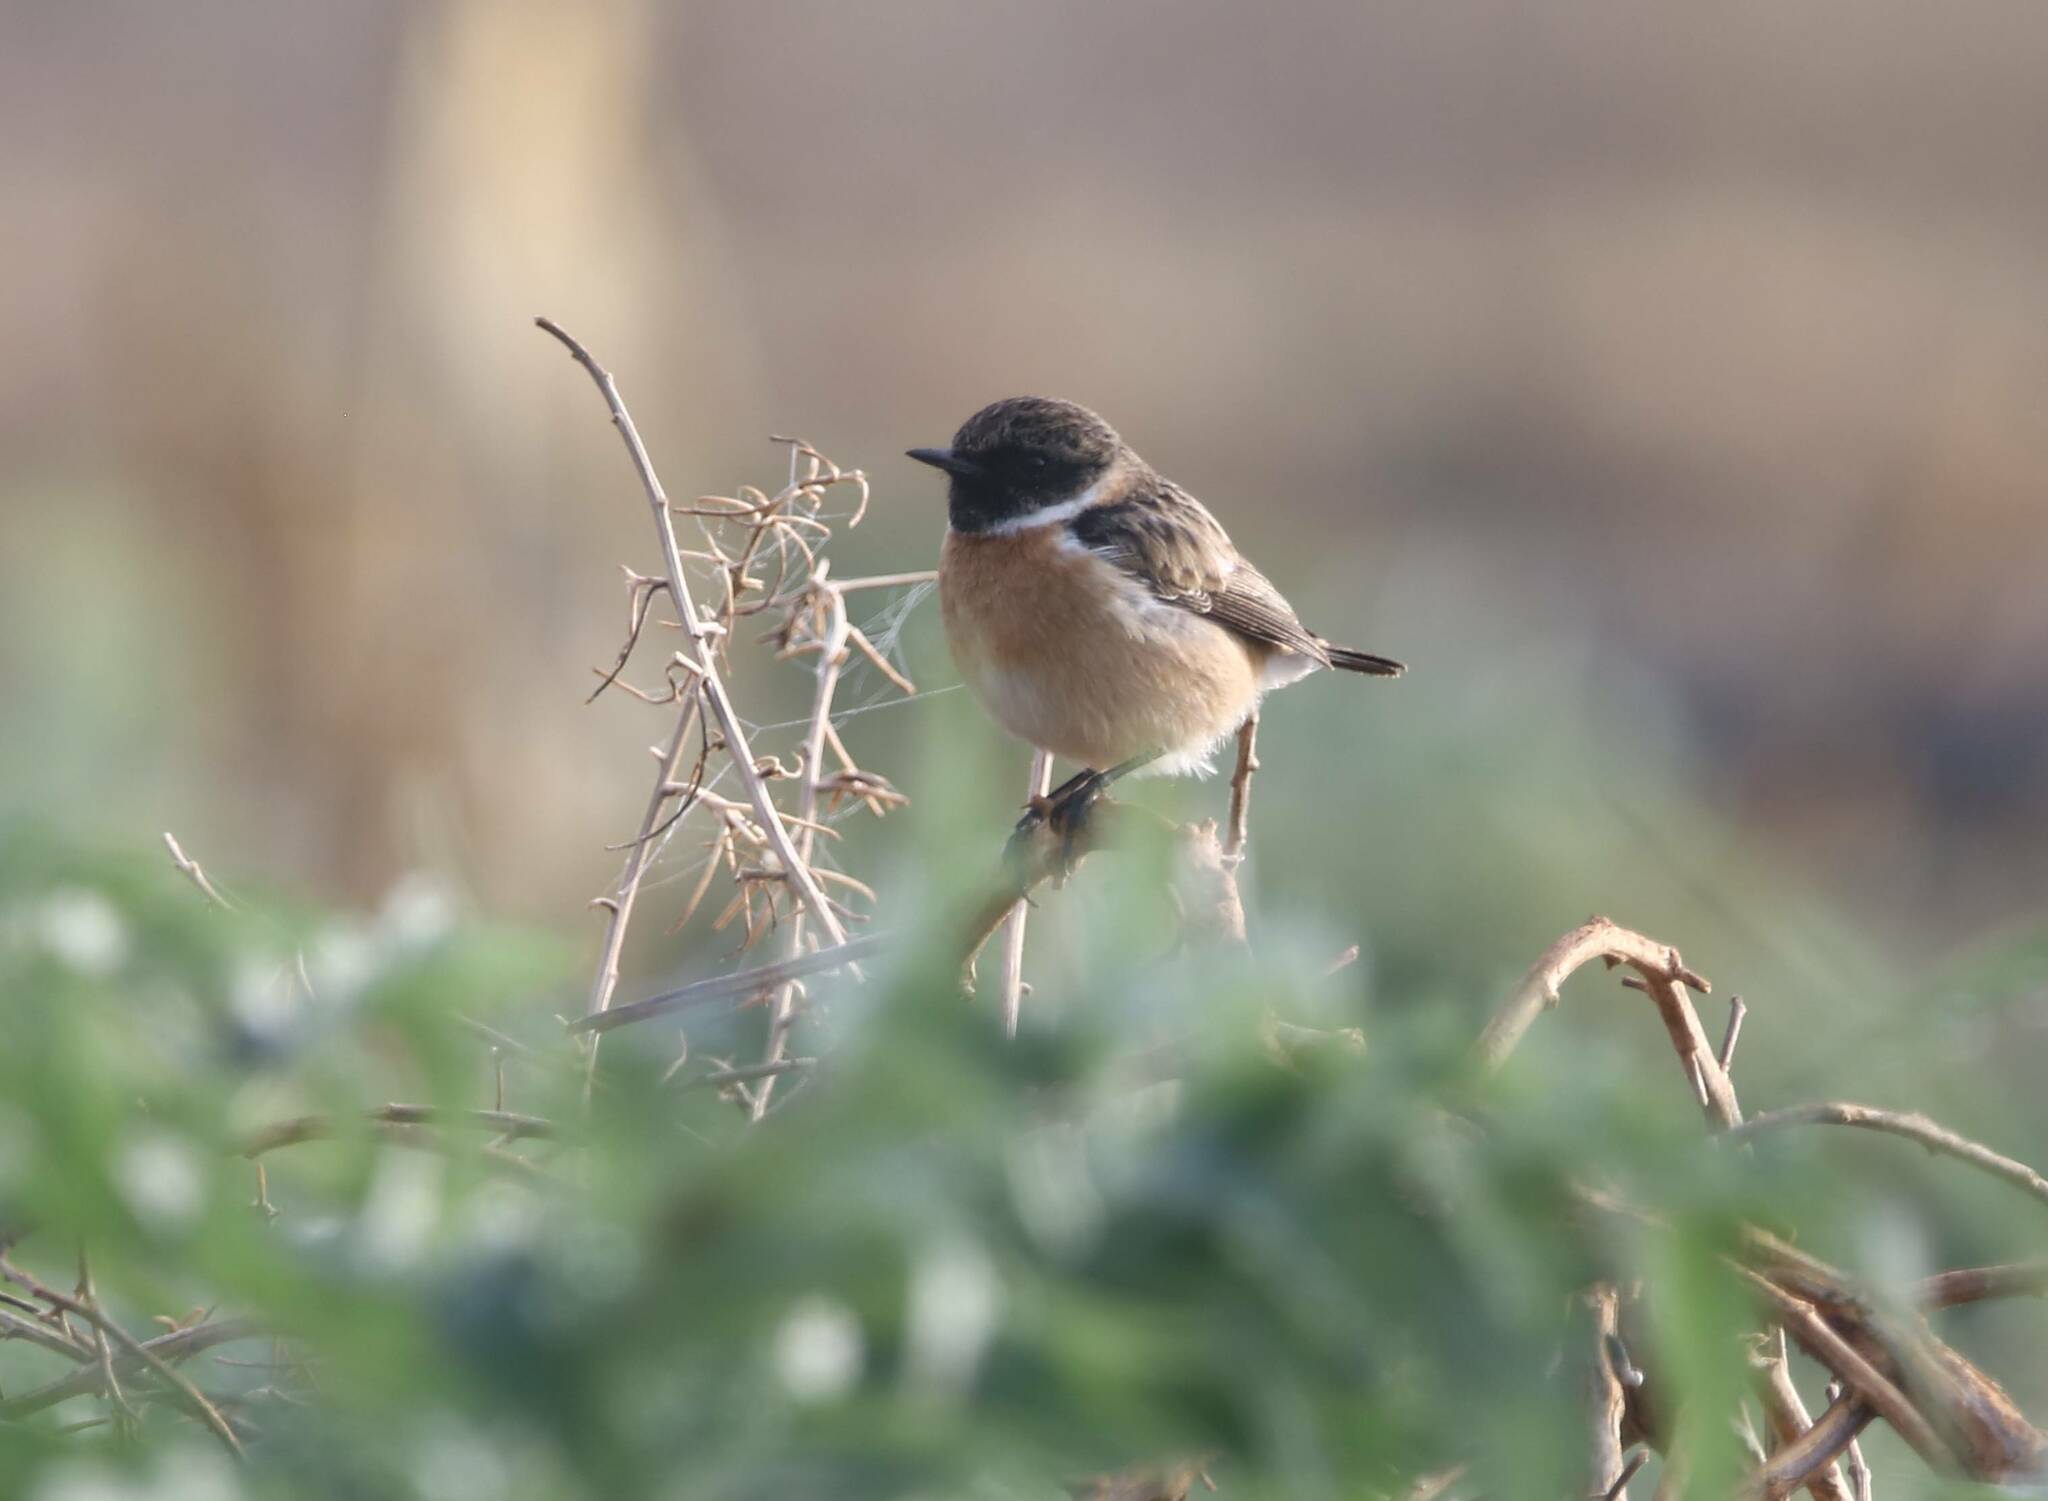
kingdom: Animalia
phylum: Chordata
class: Aves
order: Passeriformes
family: Muscicapidae
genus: Saxicola
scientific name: Saxicola rubicola
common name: European stonechat
